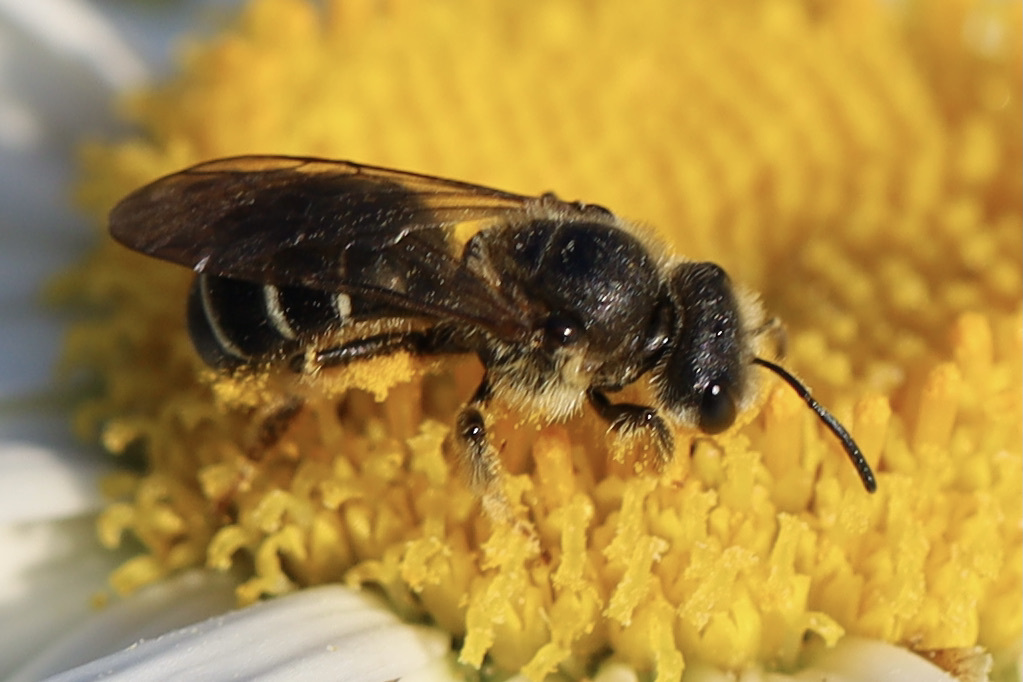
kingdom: Animalia
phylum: Arthropoda
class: Insecta
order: Hymenoptera
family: Halictidae
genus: Halictus
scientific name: Halictus rubicundus
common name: Orange-legged furrow bee
